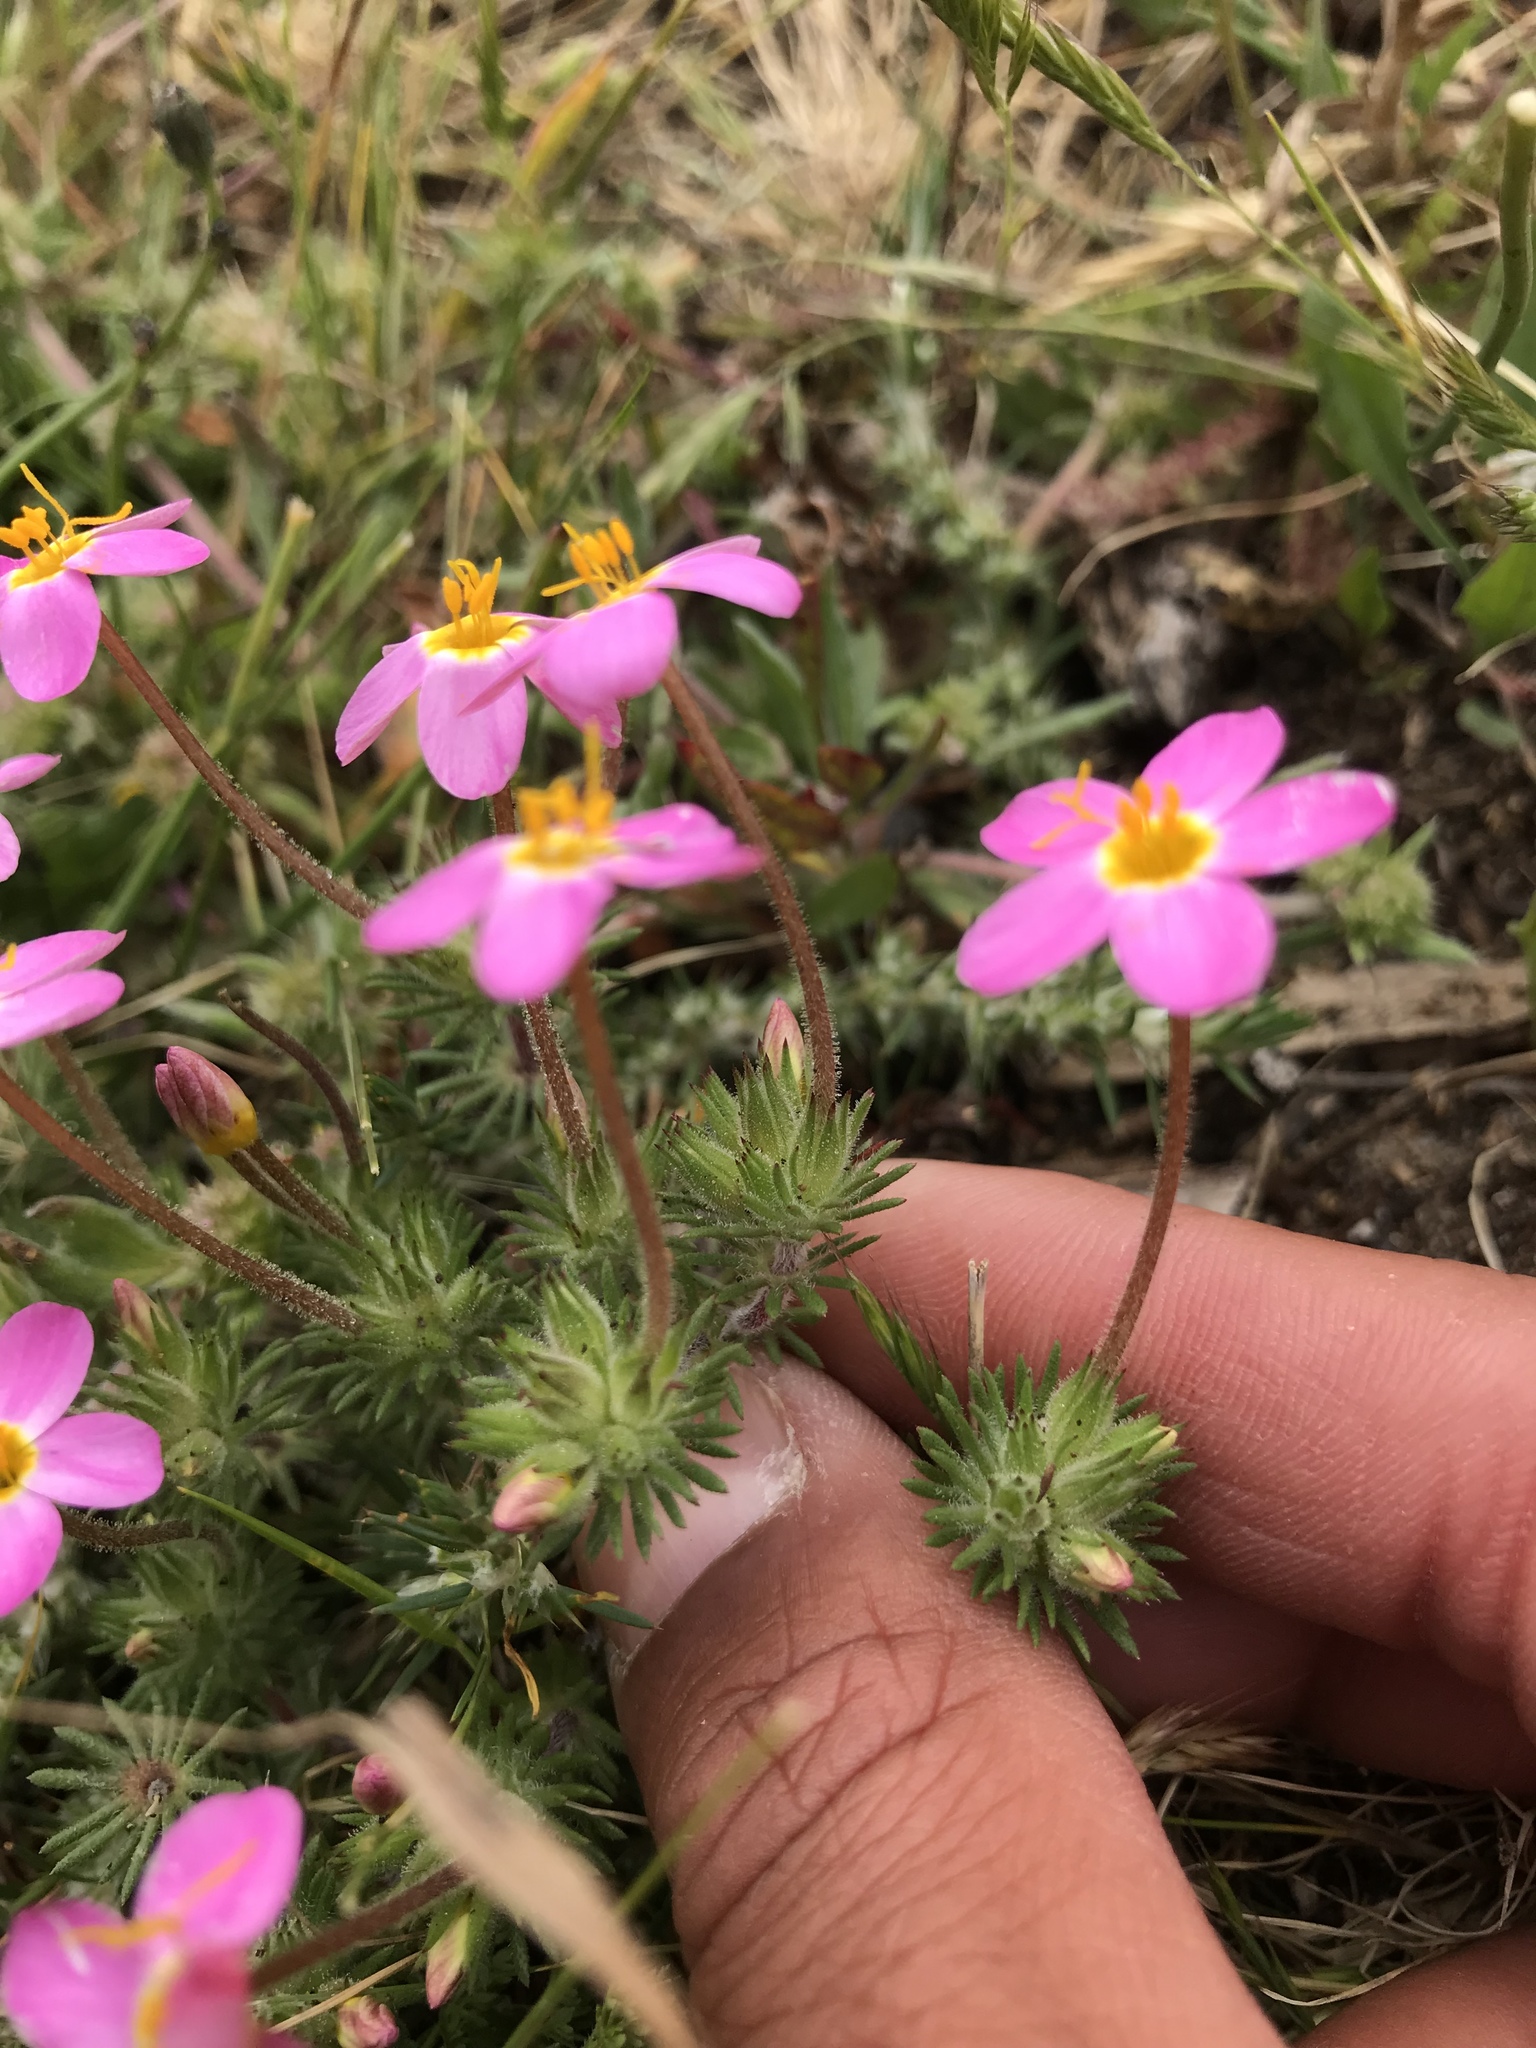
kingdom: Plantae
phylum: Tracheophyta
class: Magnoliopsida
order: Ericales
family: Polemoniaceae
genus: Leptosiphon
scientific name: Leptosiphon parviflorus
